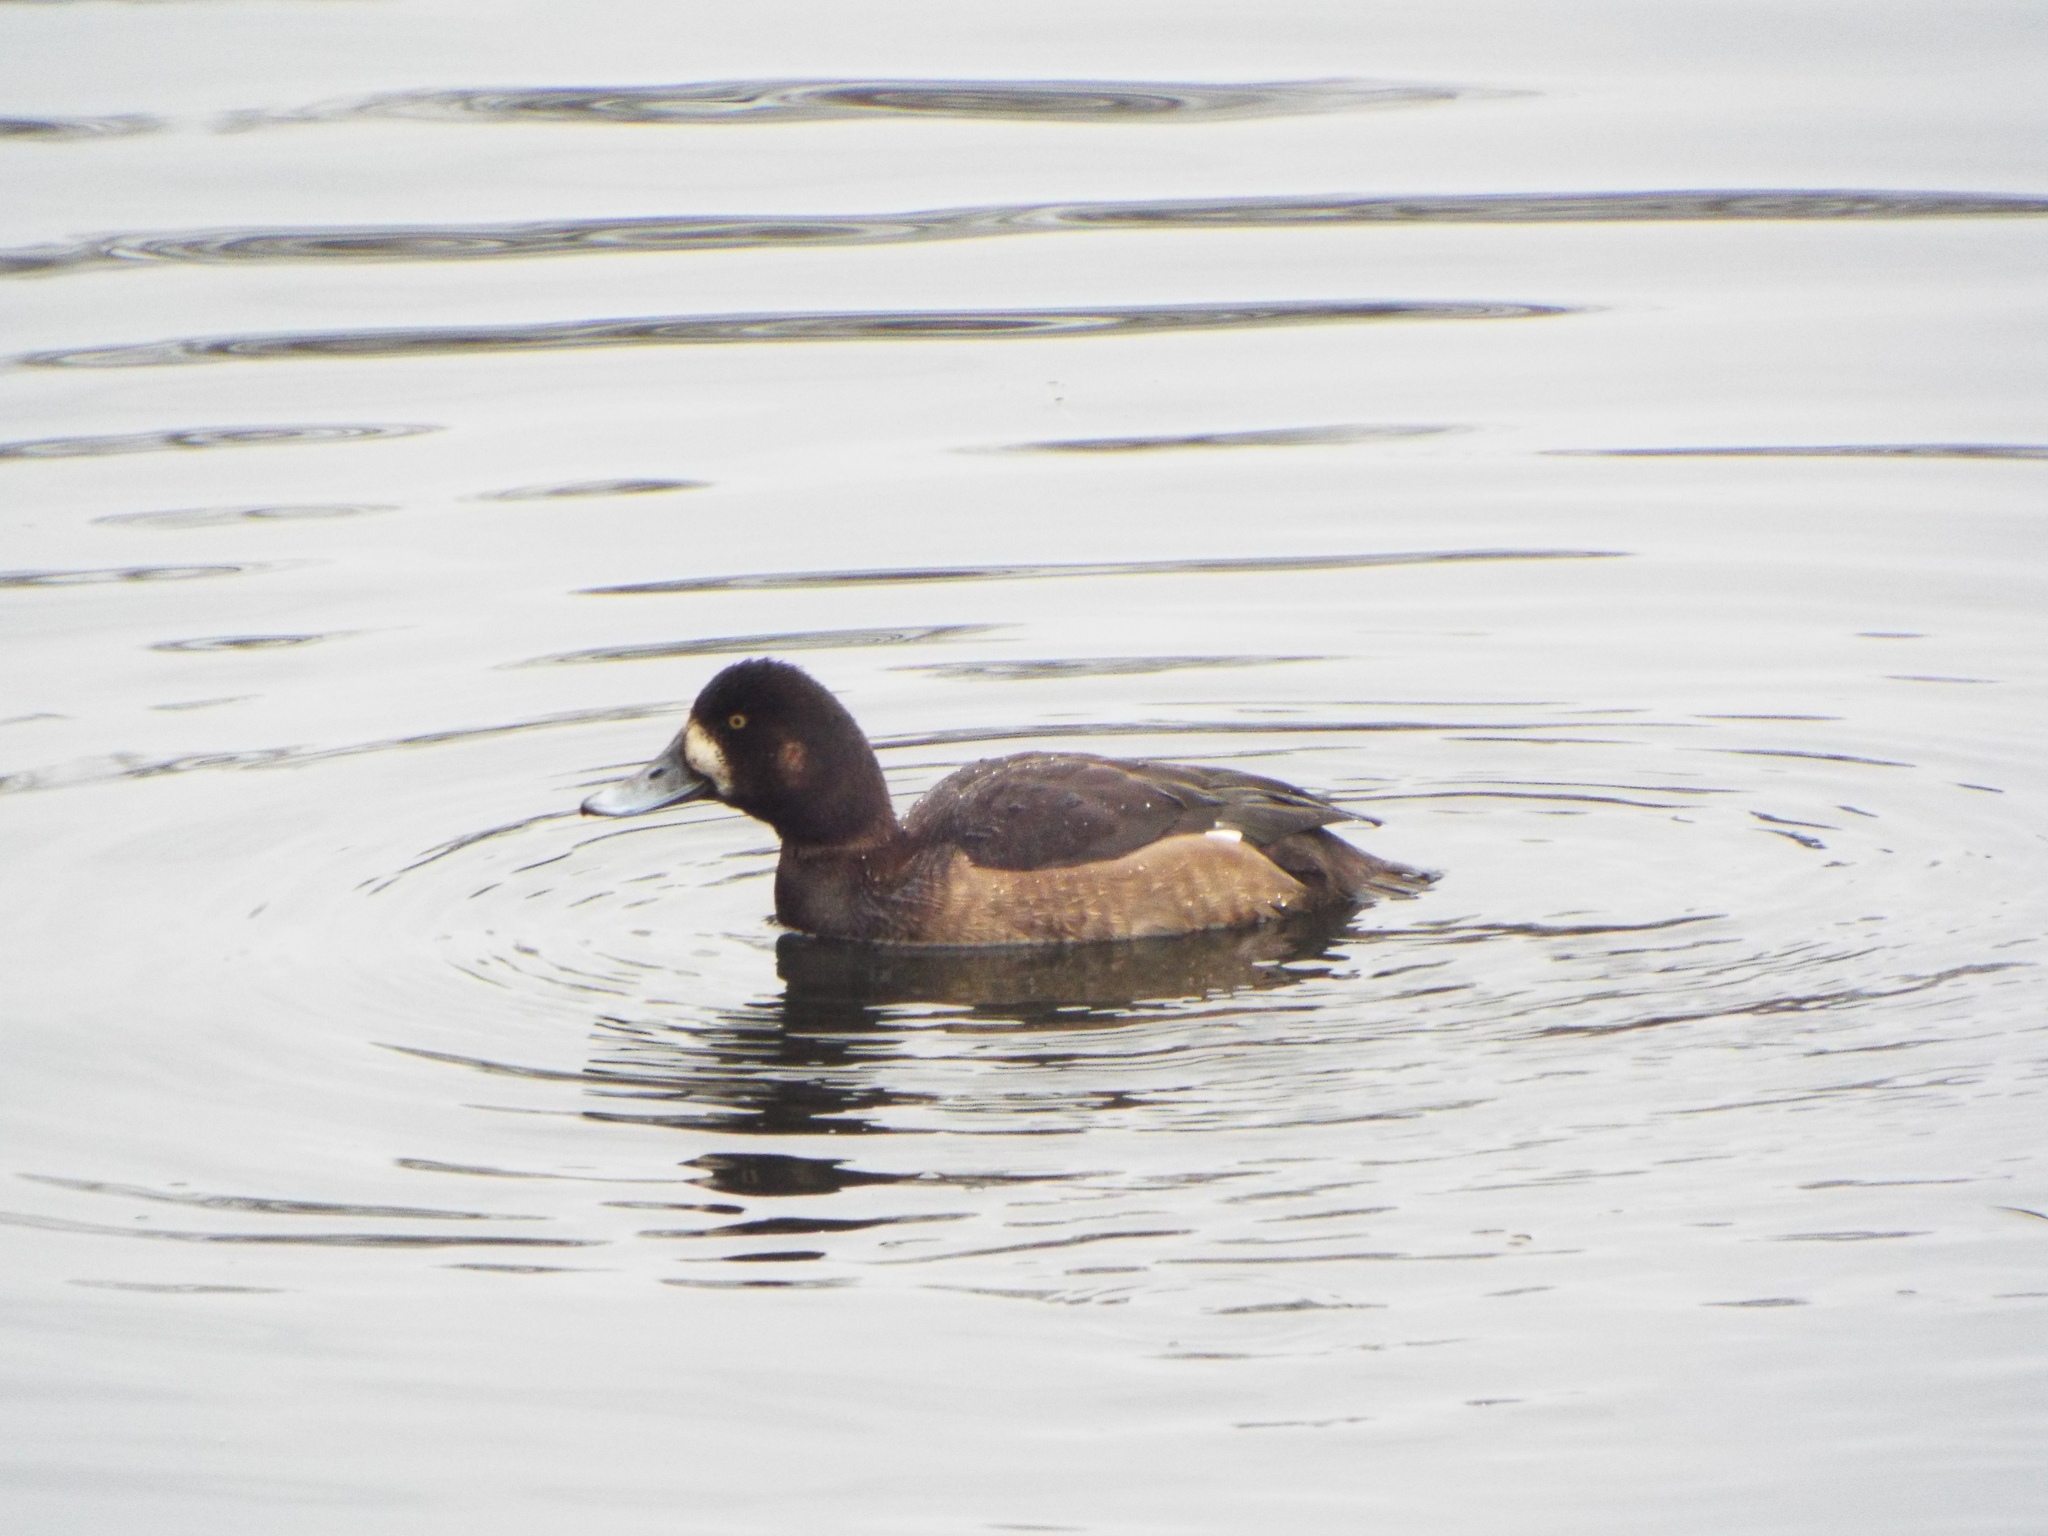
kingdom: Animalia
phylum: Chordata
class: Aves
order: Anseriformes
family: Anatidae
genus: Aythya
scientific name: Aythya marila
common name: Greater scaup
